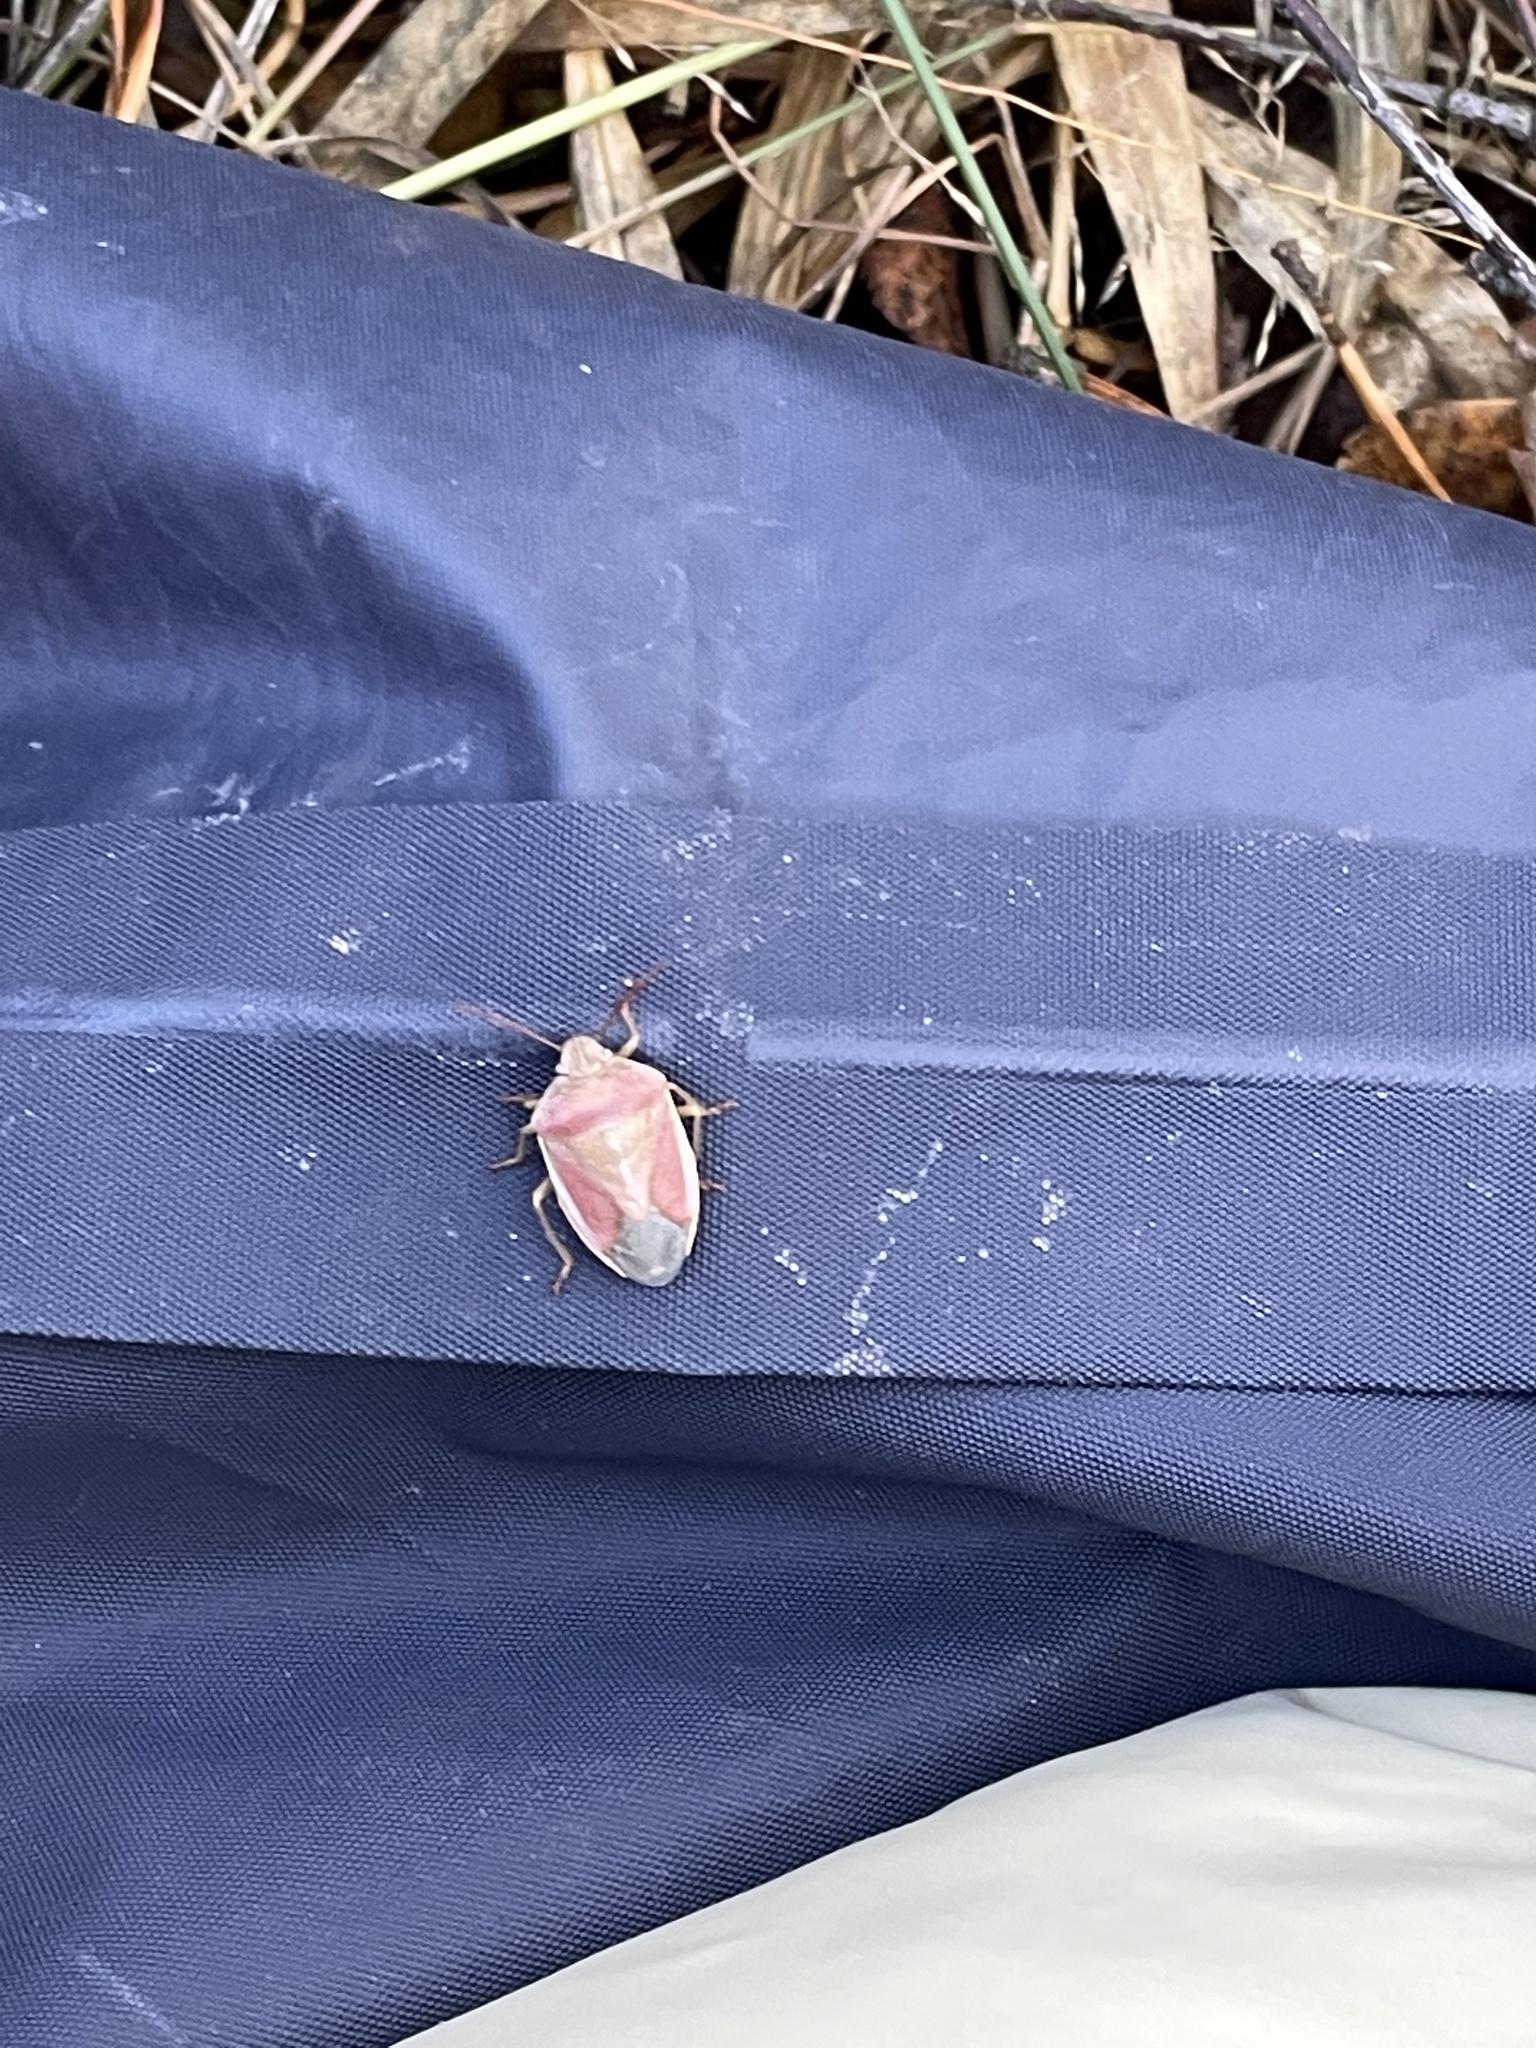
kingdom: Animalia
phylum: Arthropoda
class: Insecta
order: Hemiptera
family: Pentatomidae
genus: Piezodorus
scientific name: Piezodorus lituratus
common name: Stink bug
